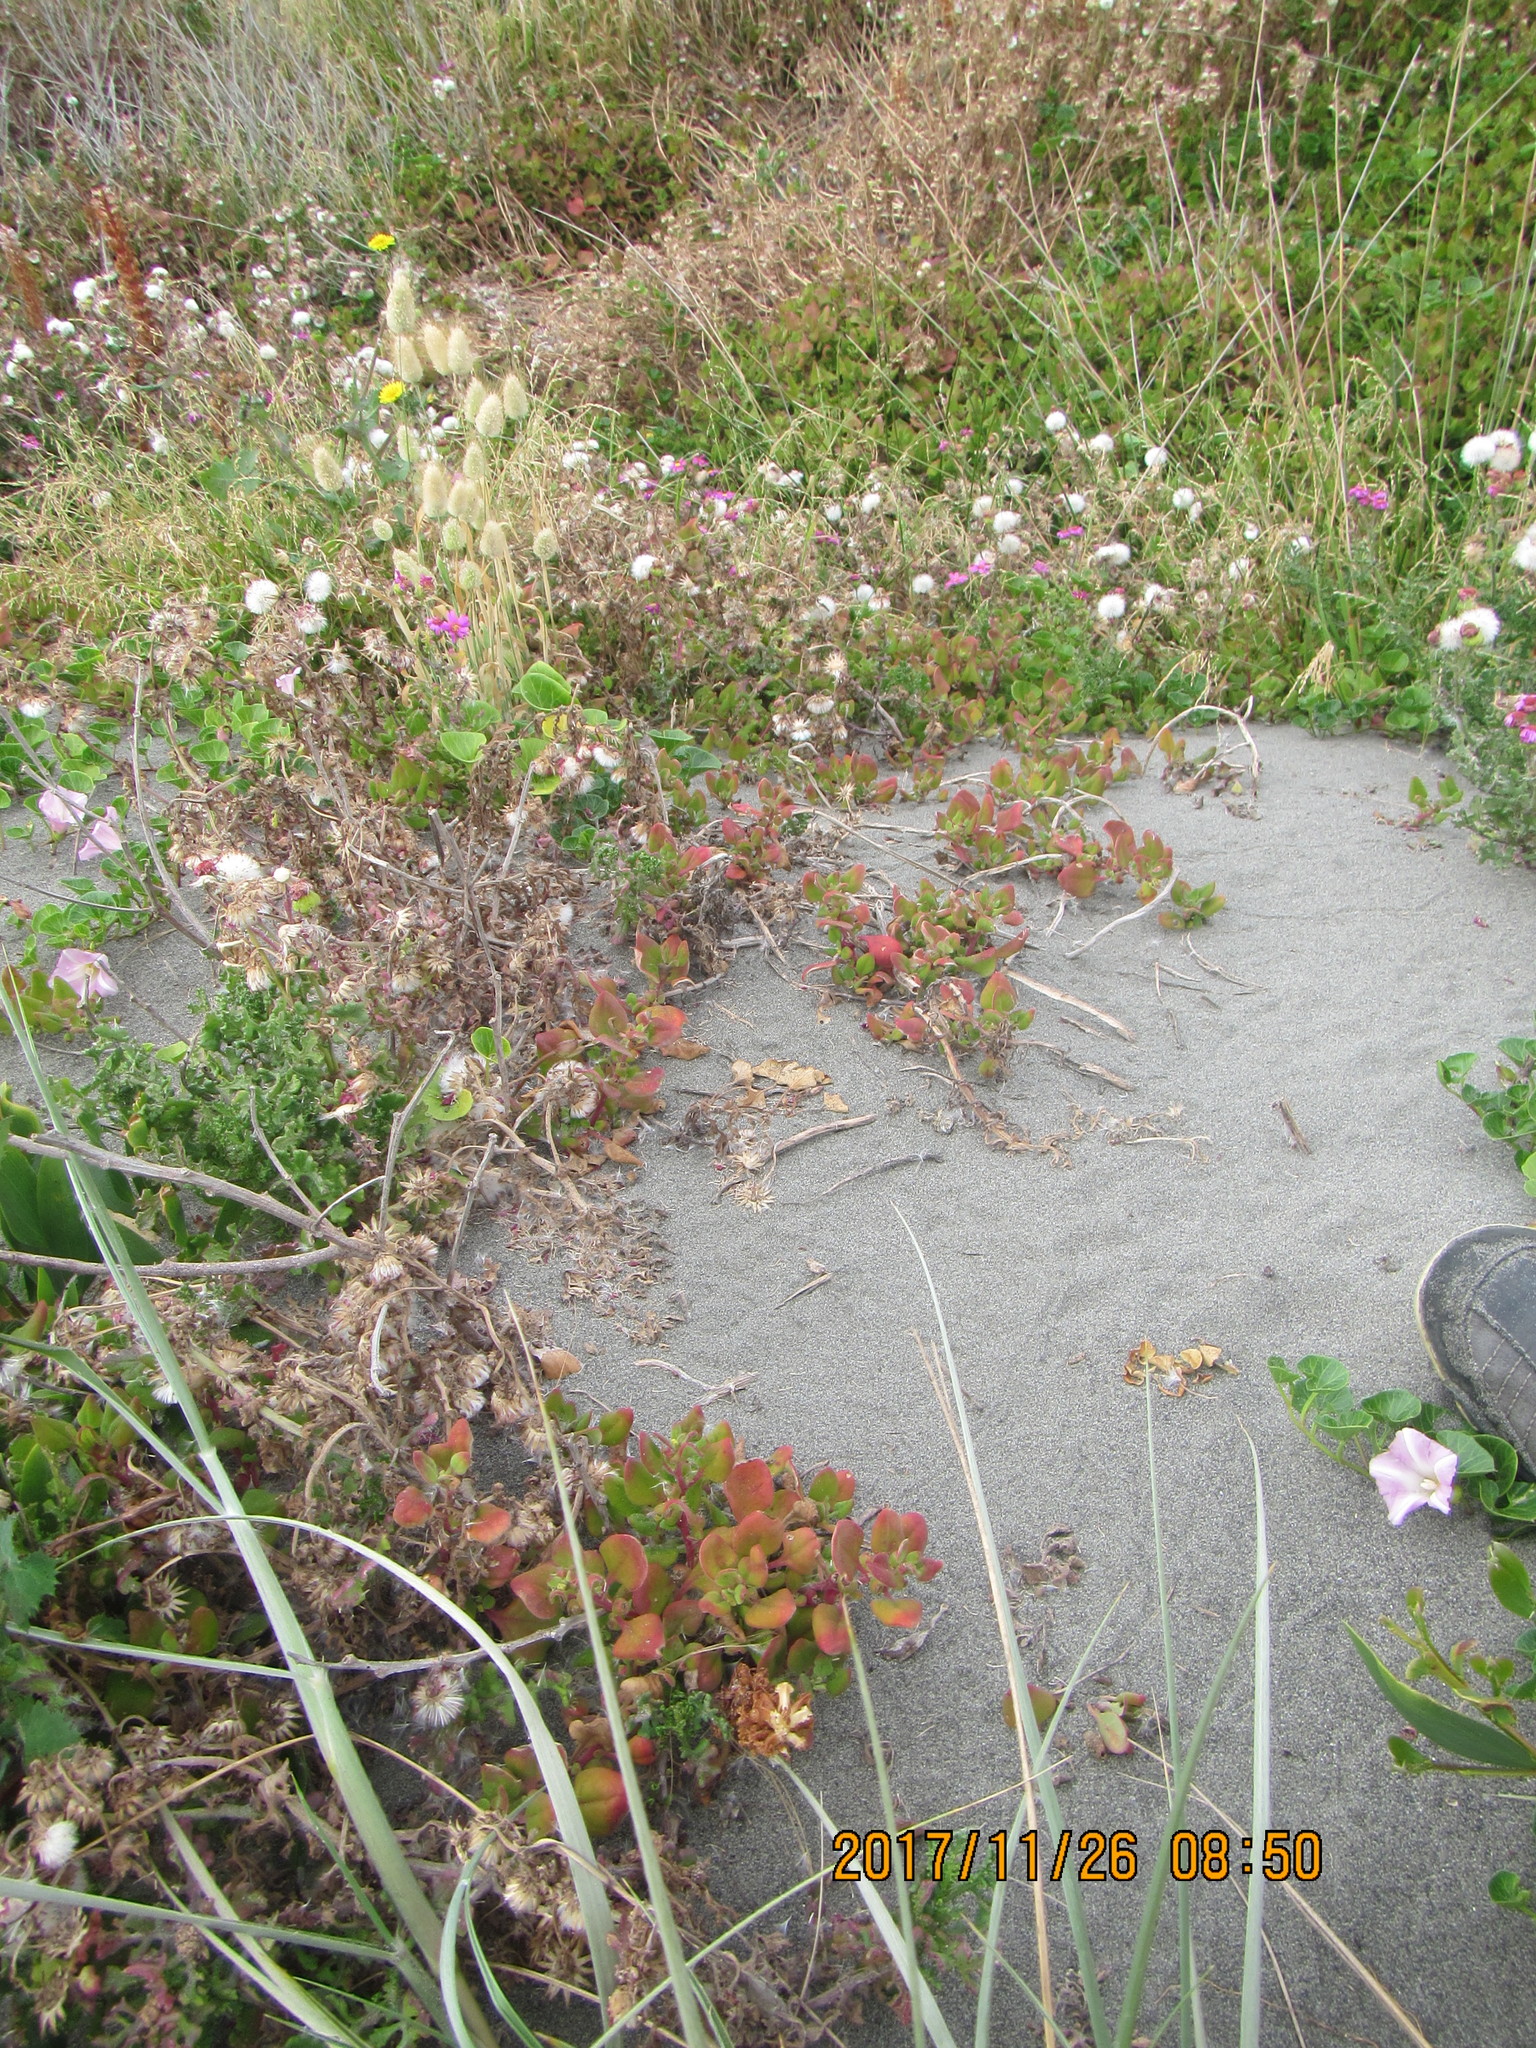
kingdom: Plantae
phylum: Tracheophyta
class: Magnoliopsida
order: Caryophyllales
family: Aizoaceae
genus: Tetragonia
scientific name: Tetragonia implexicoma
